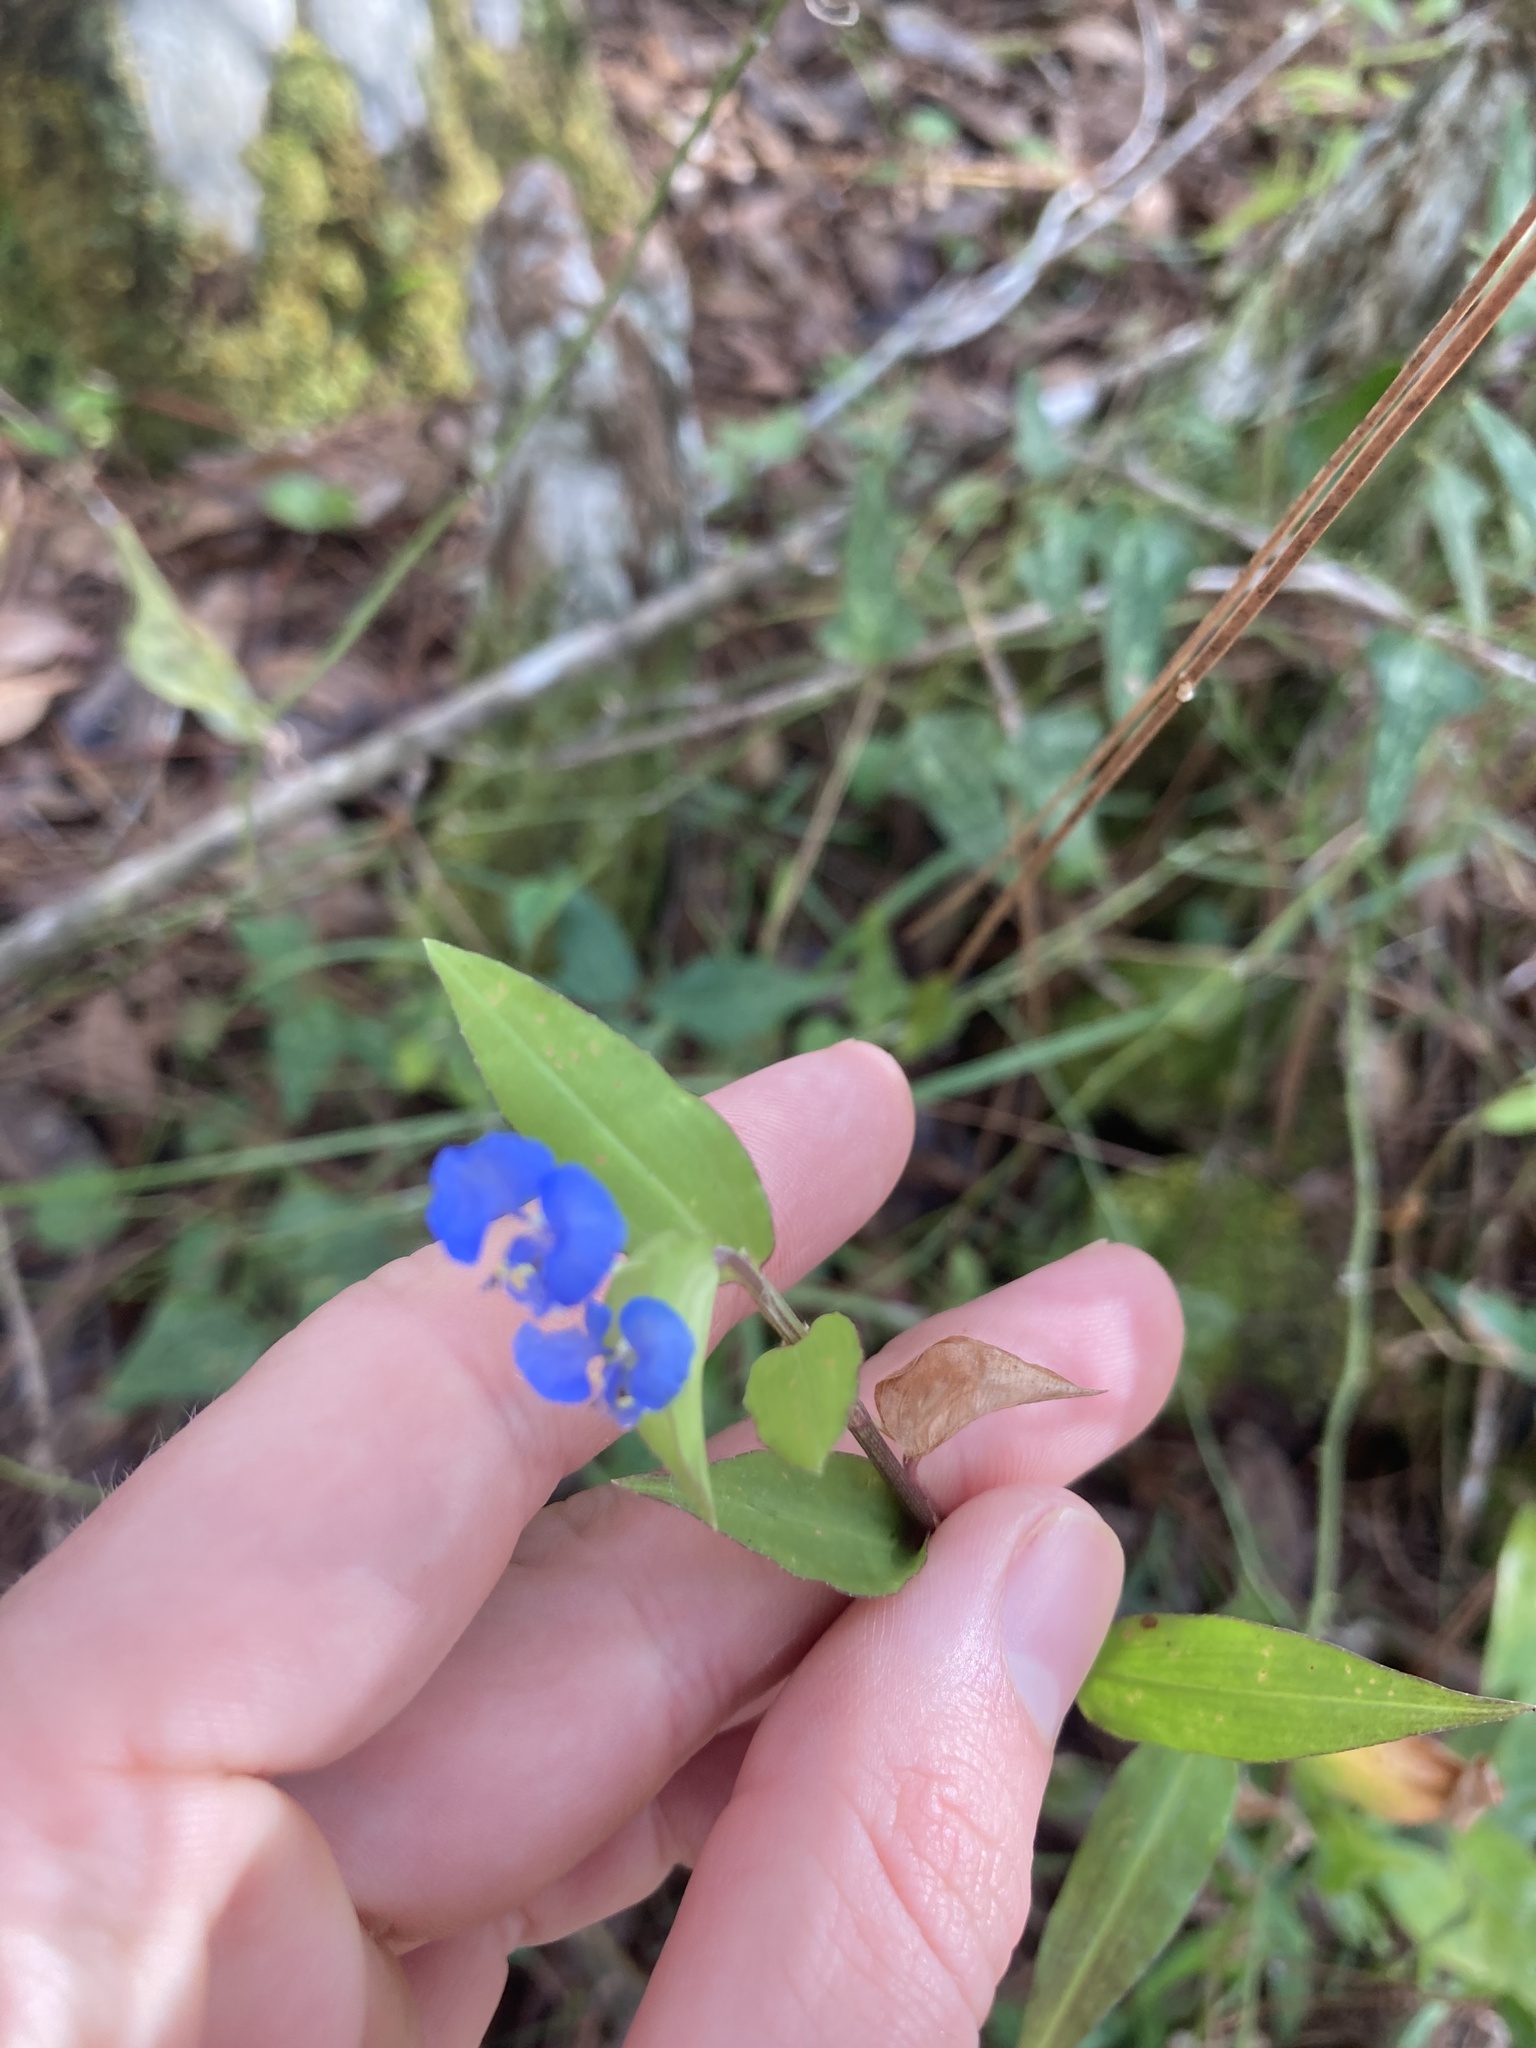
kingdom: Plantae
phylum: Tracheophyta
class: Liliopsida
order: Commelinales
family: Commelinaceae
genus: Commelina
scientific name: Commelina diffusa
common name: Climbing dayflower
